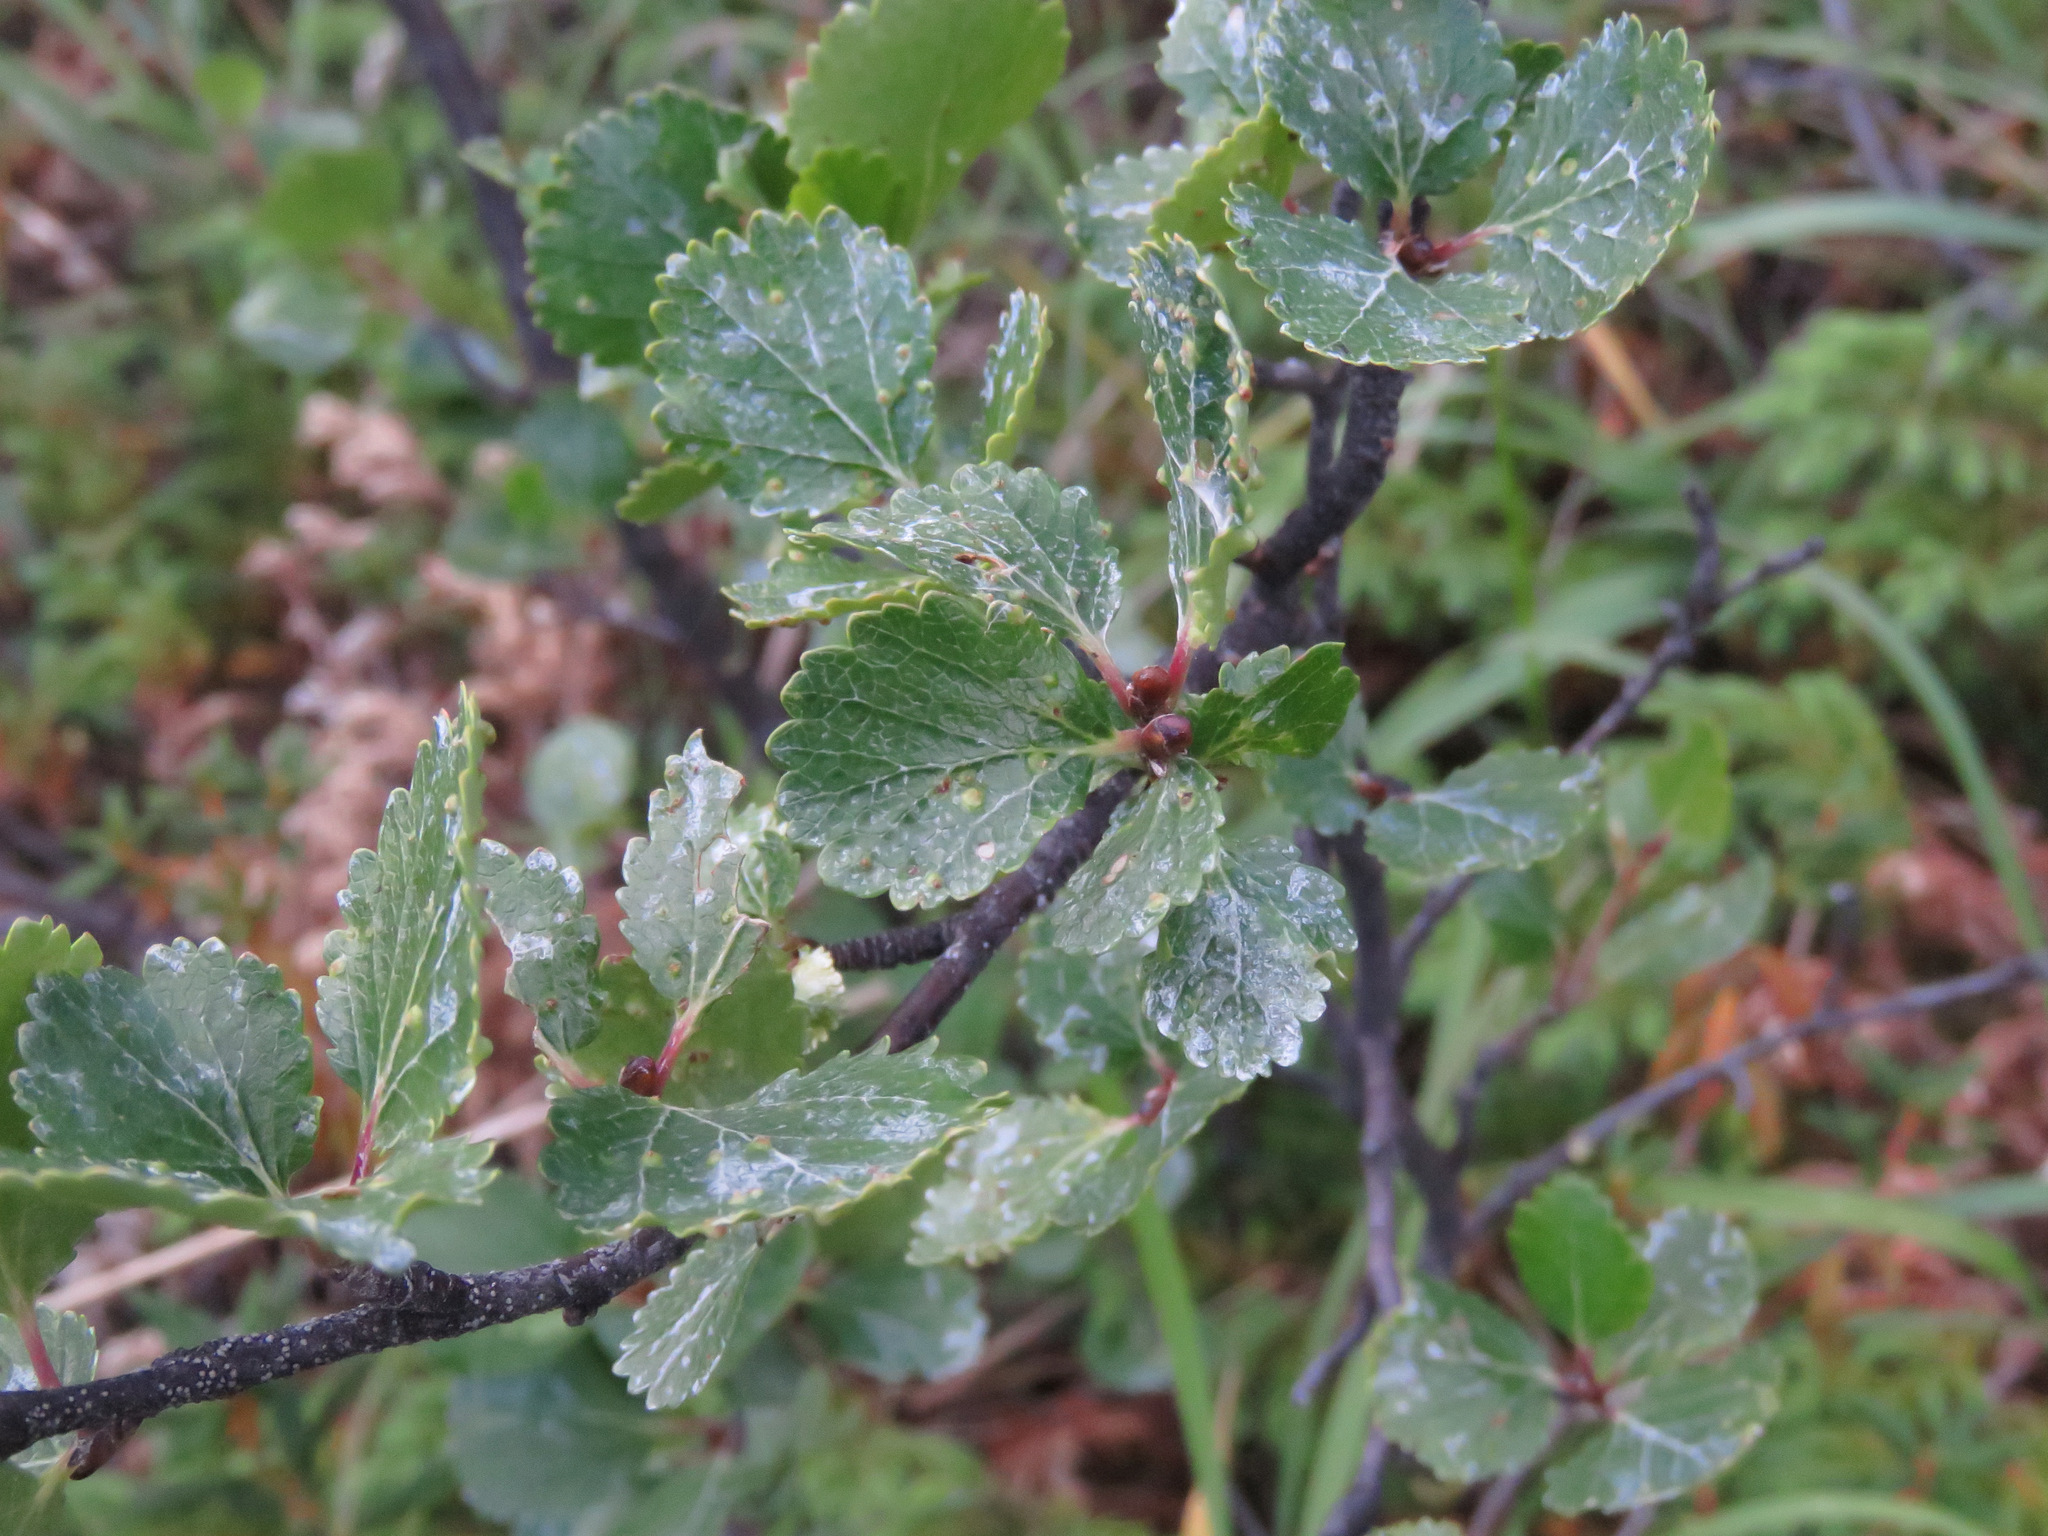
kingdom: Plantae
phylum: Tracheophyta
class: Magnoliopsida
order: Fagales
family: Betulaceae
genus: Betula
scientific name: Betula glandulosa
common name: Dwarf birch
